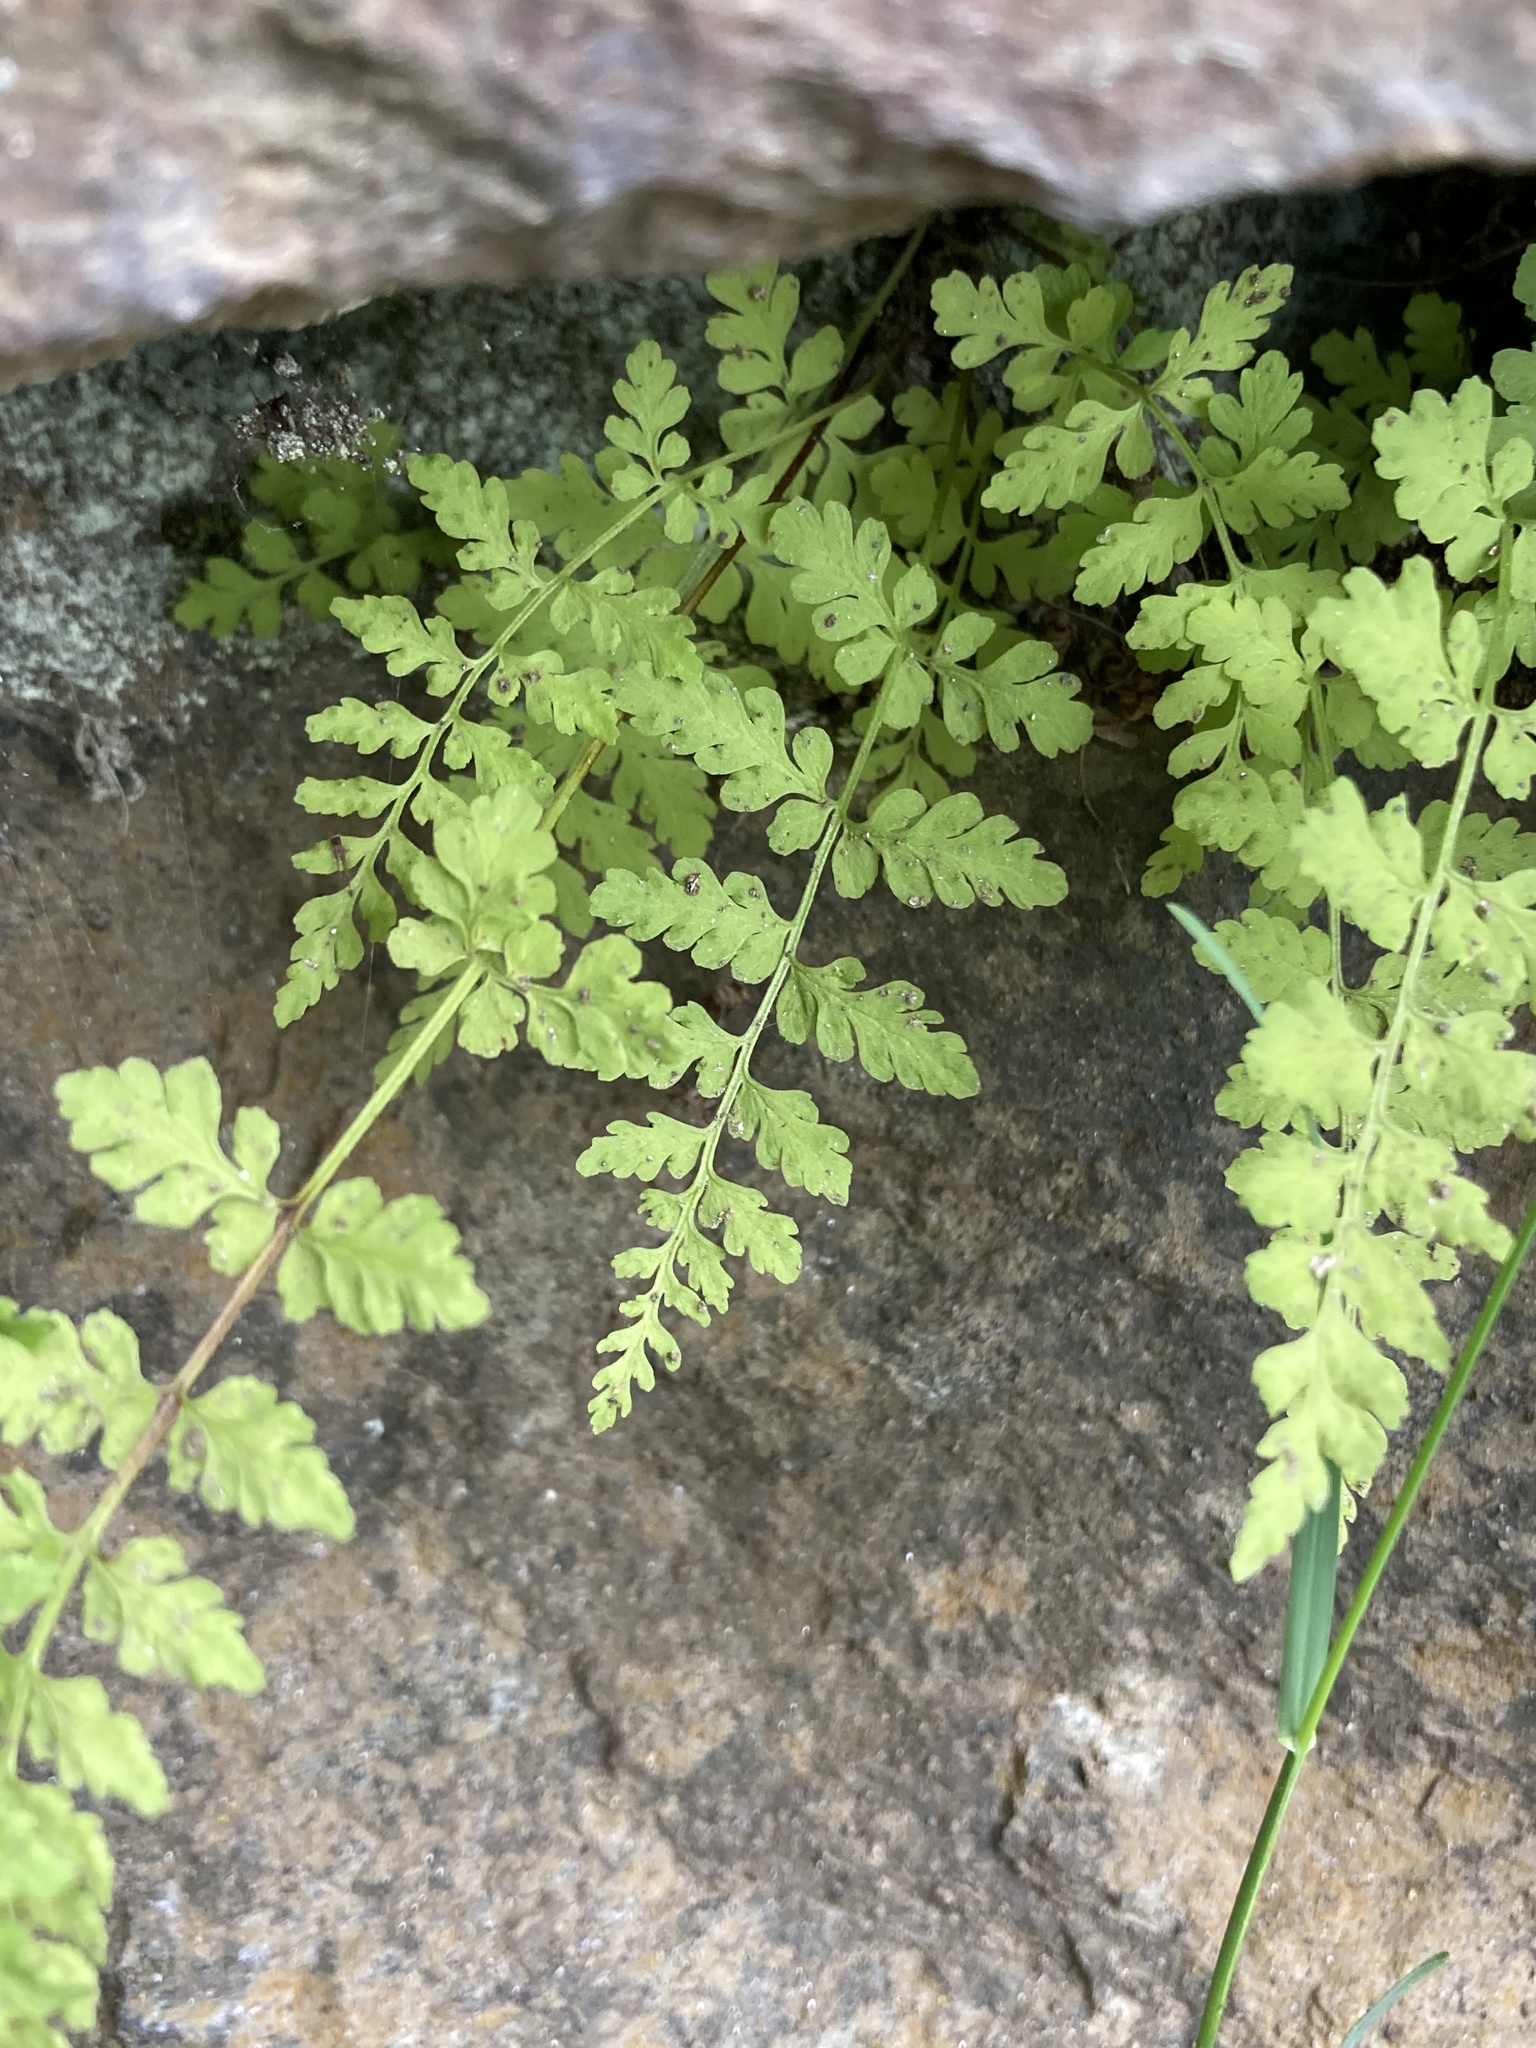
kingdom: Plantae
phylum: Tracheophyta
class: Polypodiopsida
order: Polypodiales
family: Cystopteridaceae
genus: Cystopteris
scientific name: Cystopteris fragilis
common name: Brittle bladder fern
